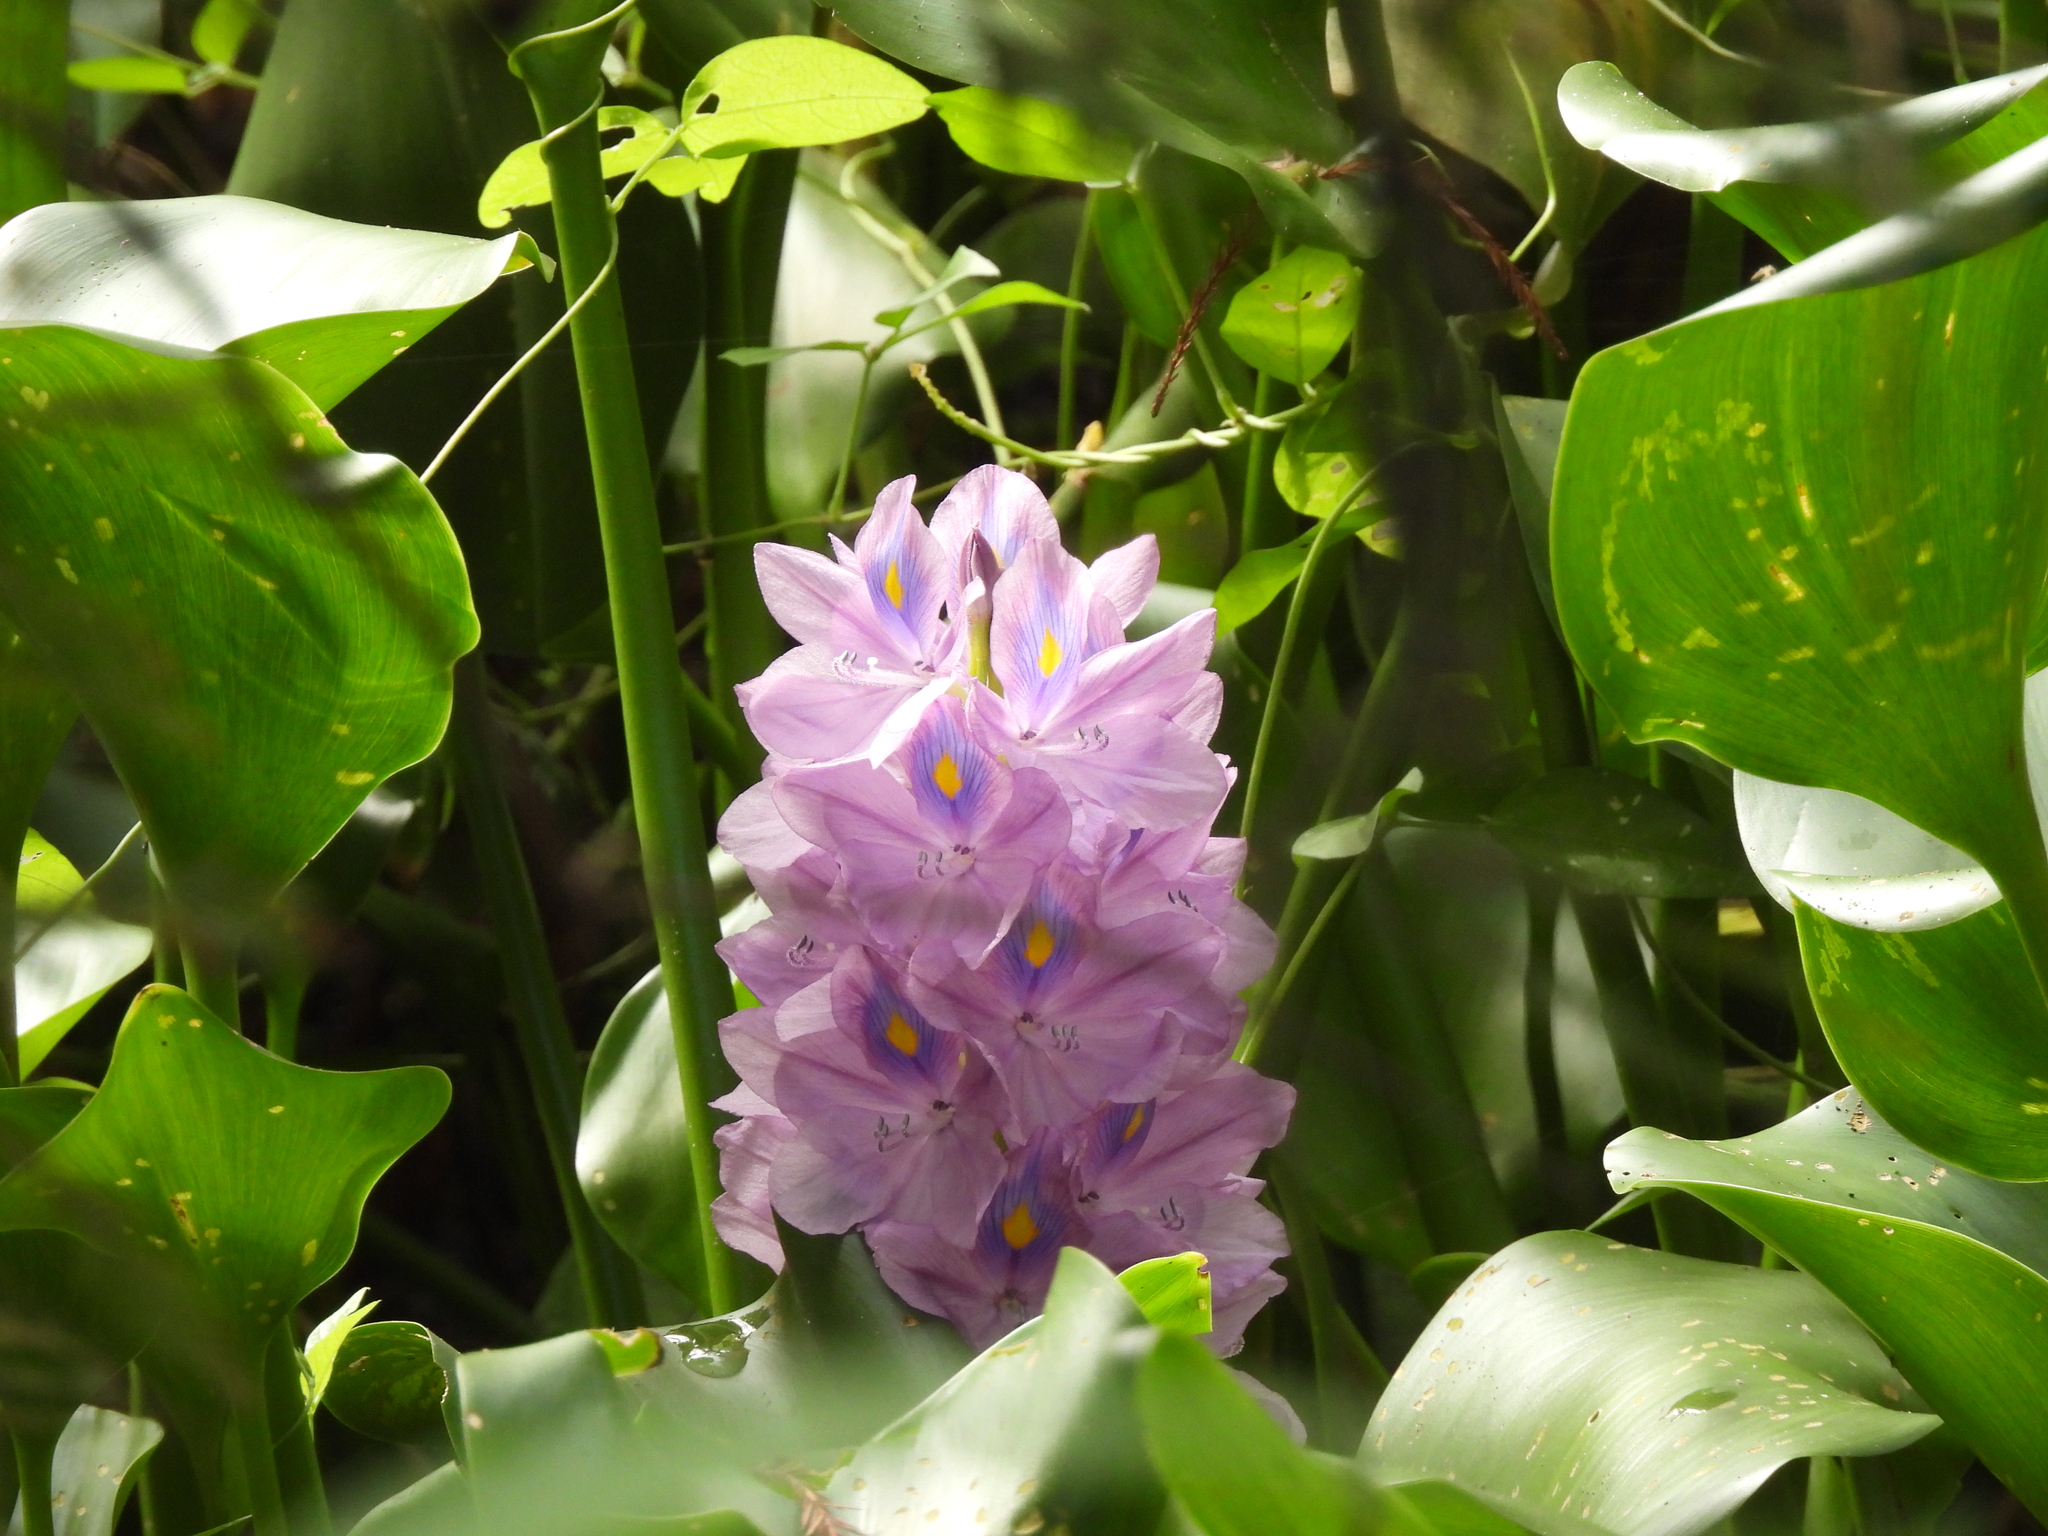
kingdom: Plantae
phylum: Tracheophyta
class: Liliopsida
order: Commelinales
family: Pontederiaceae
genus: Pontederia
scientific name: Pontederia crassipes
